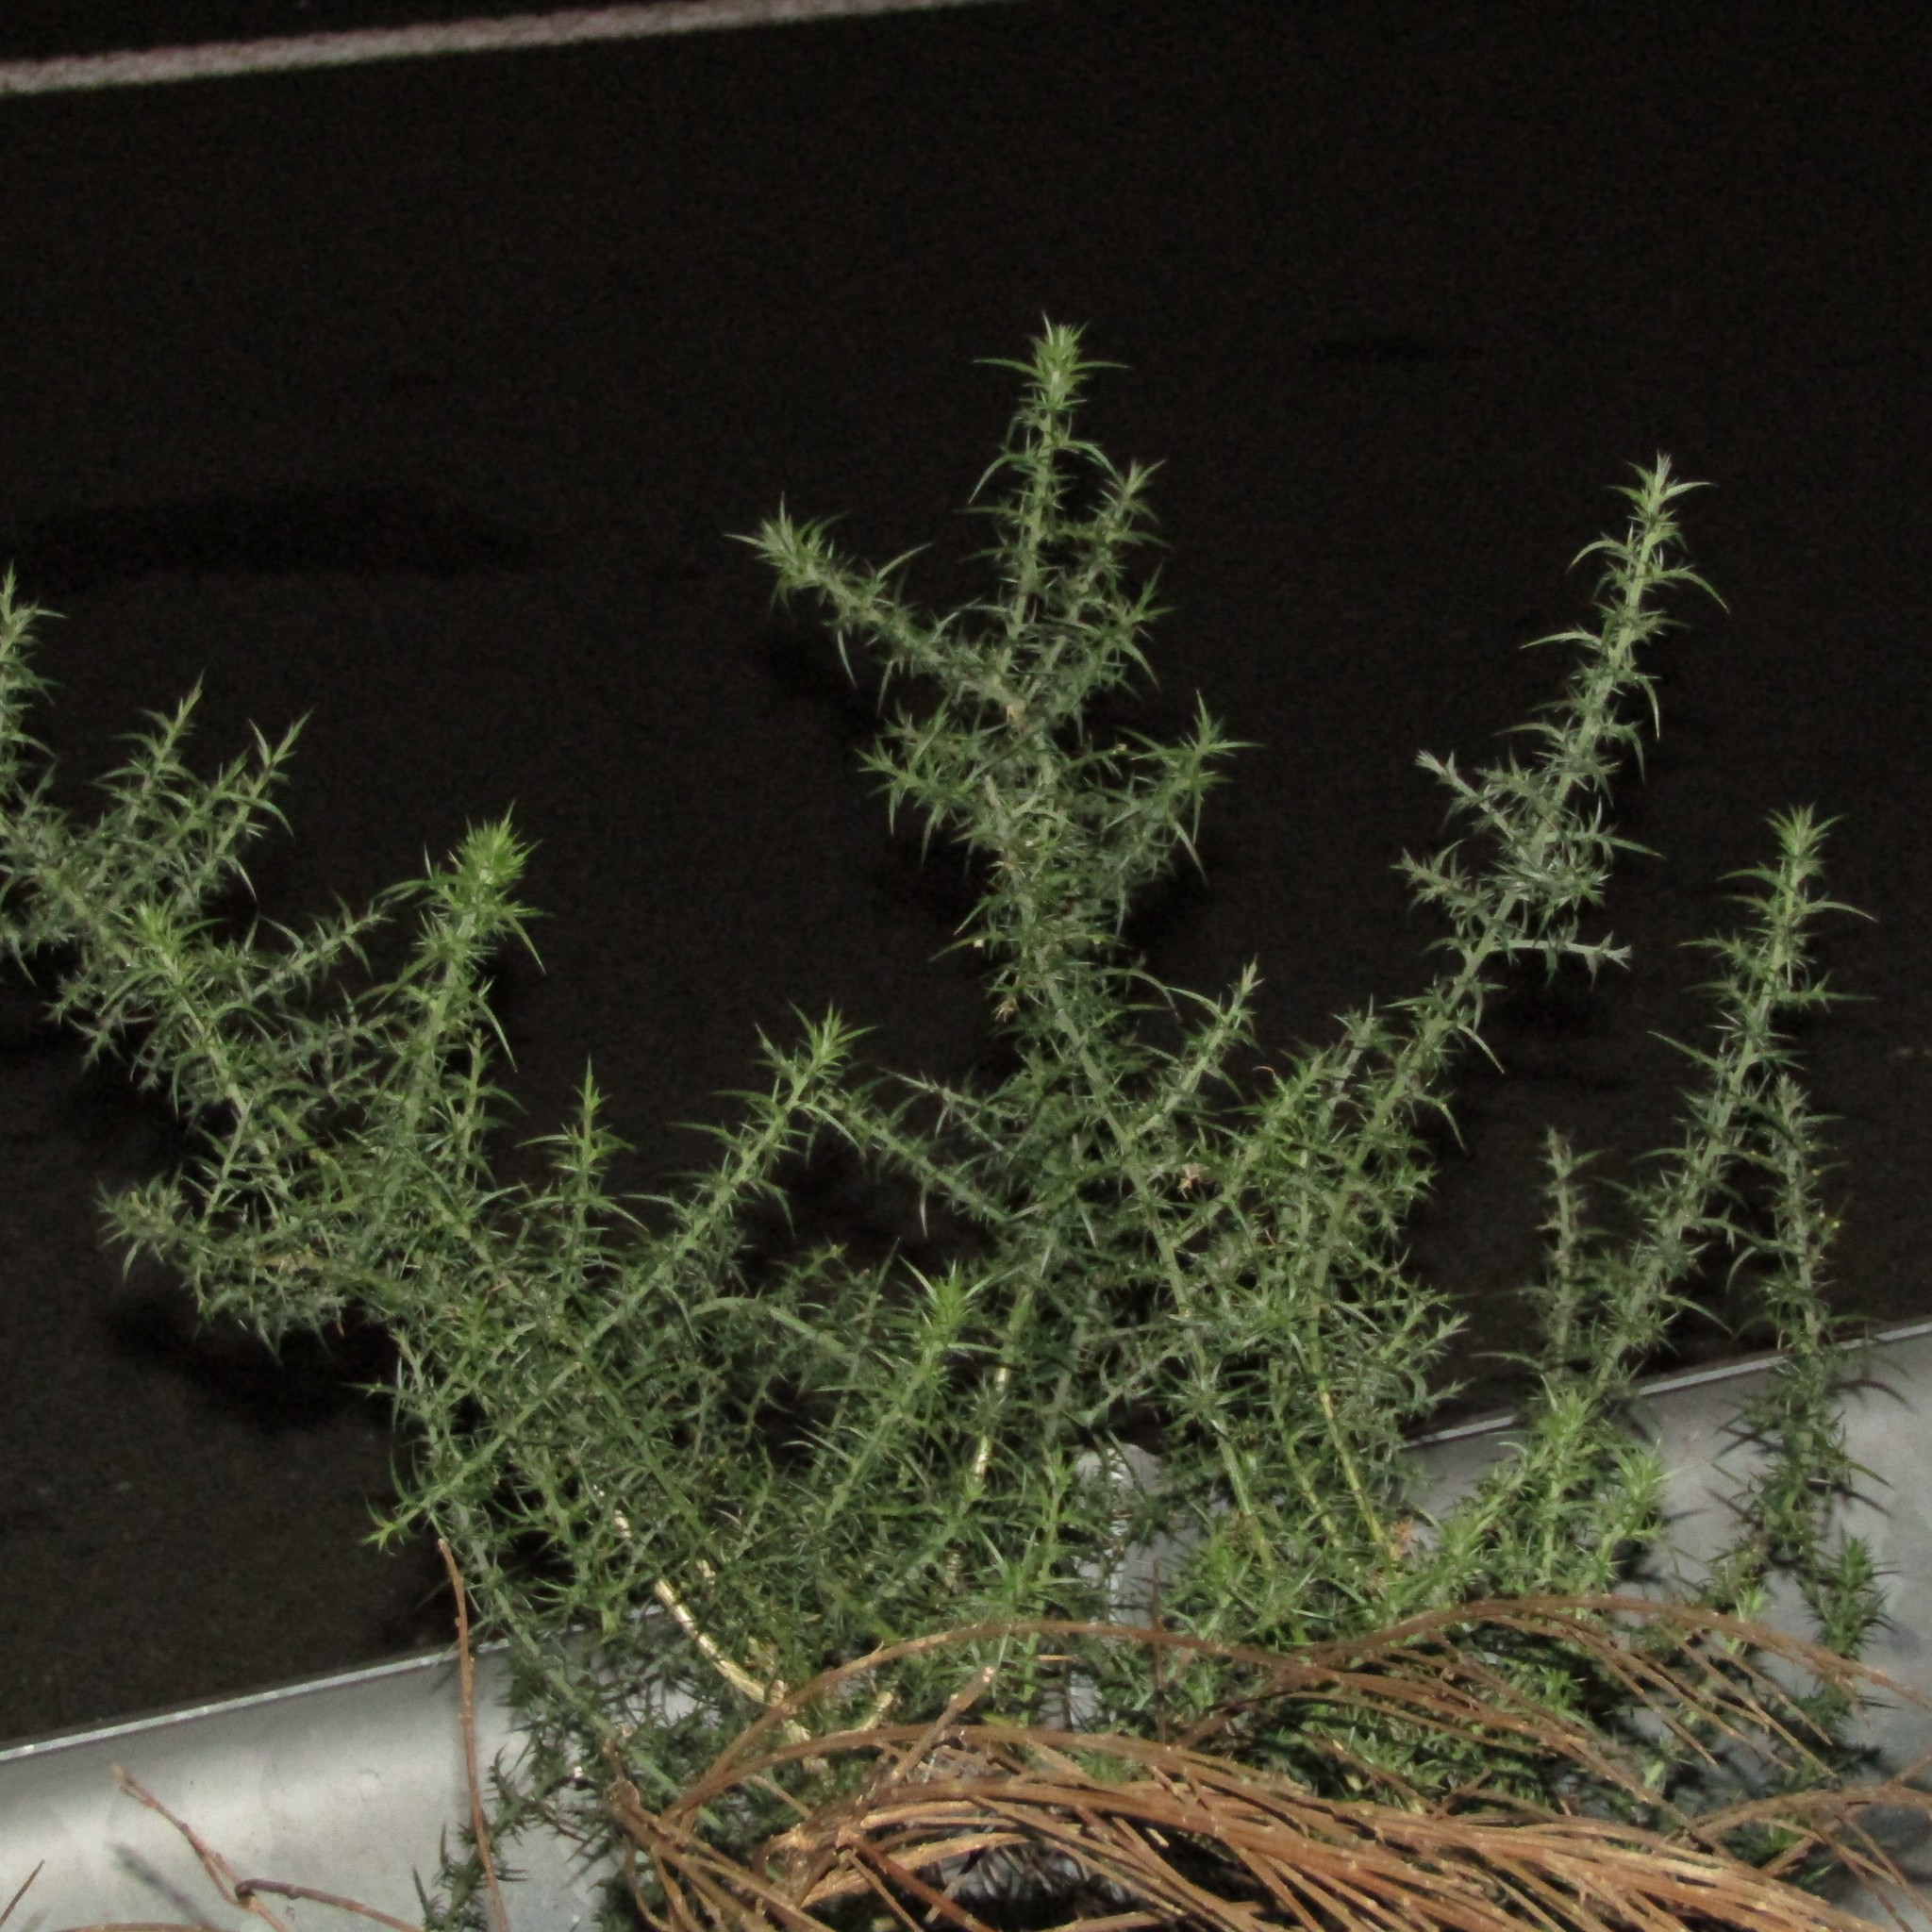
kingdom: Plantae
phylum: Tracheophyta
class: Magnoliopsida
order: Fabales
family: Fabaceae
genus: Ulex
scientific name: Ulex europaeus
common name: Common gorse
